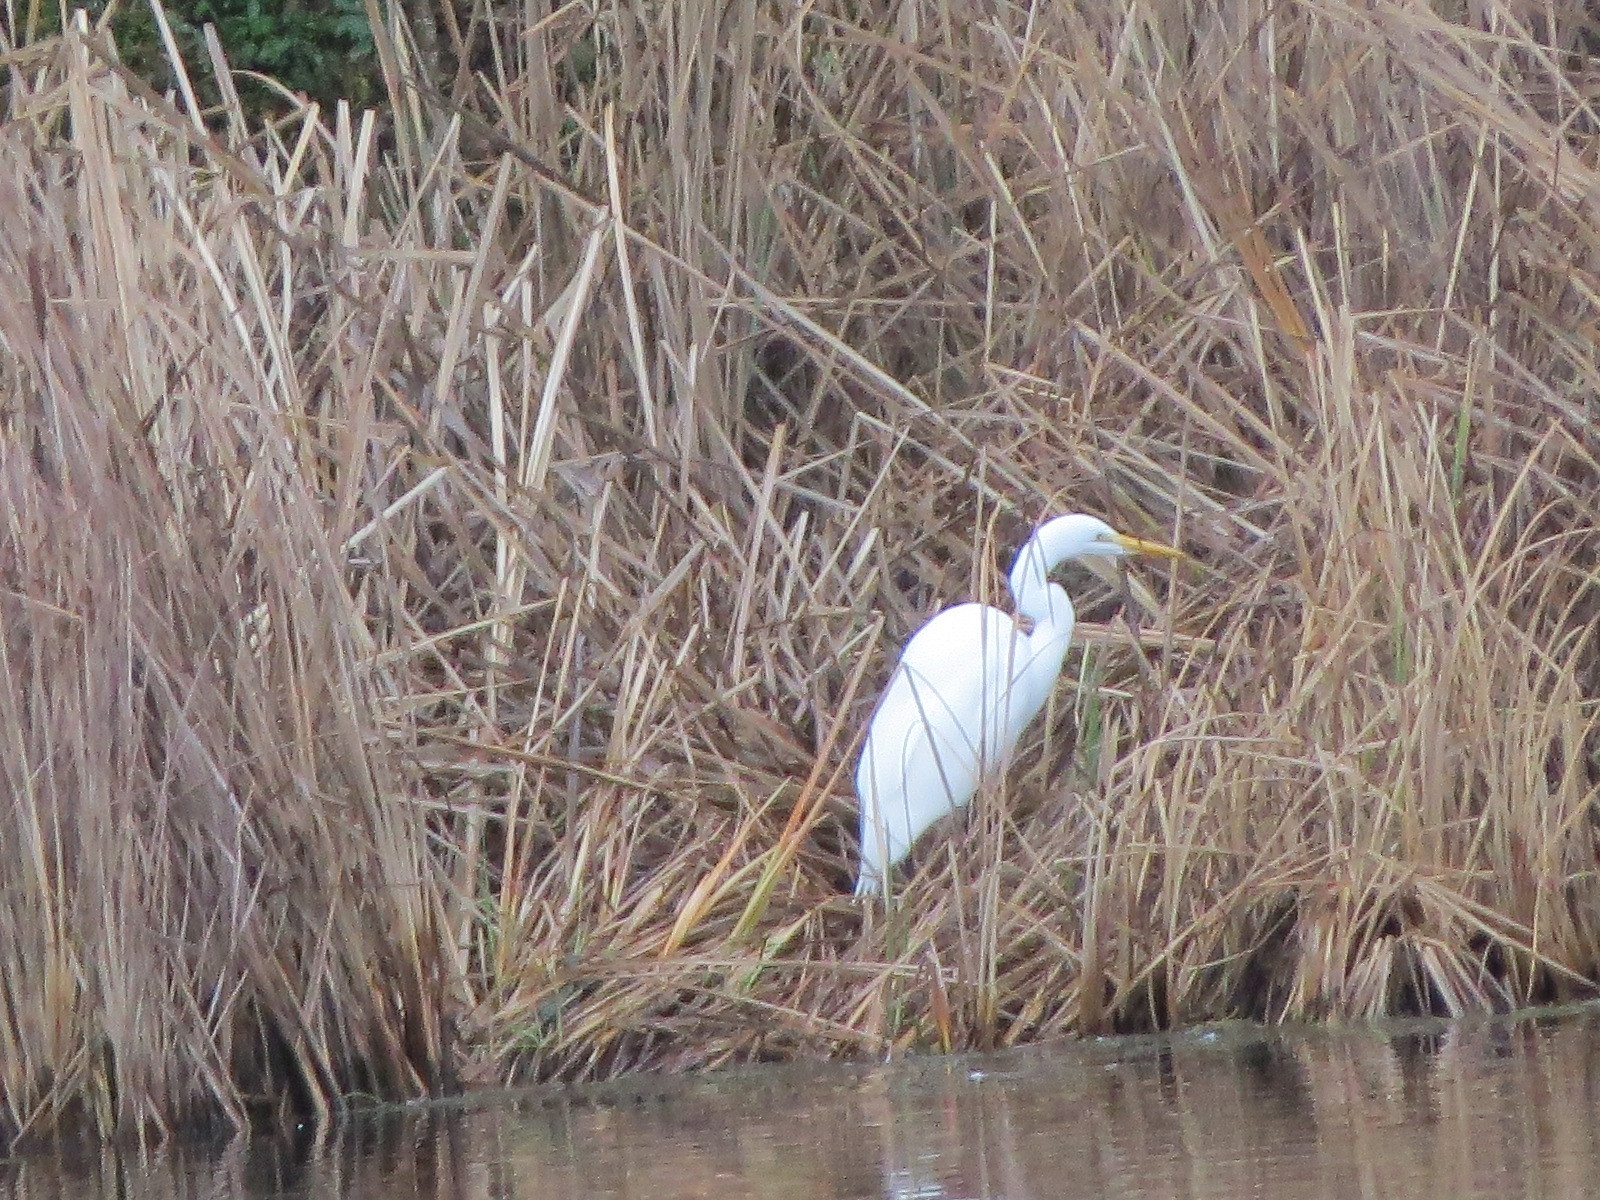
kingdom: Animalia
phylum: Chordata
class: Aves
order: Pelecaniformes
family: Ardeidae
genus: Ardea
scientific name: Ardea alba
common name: Great egret
